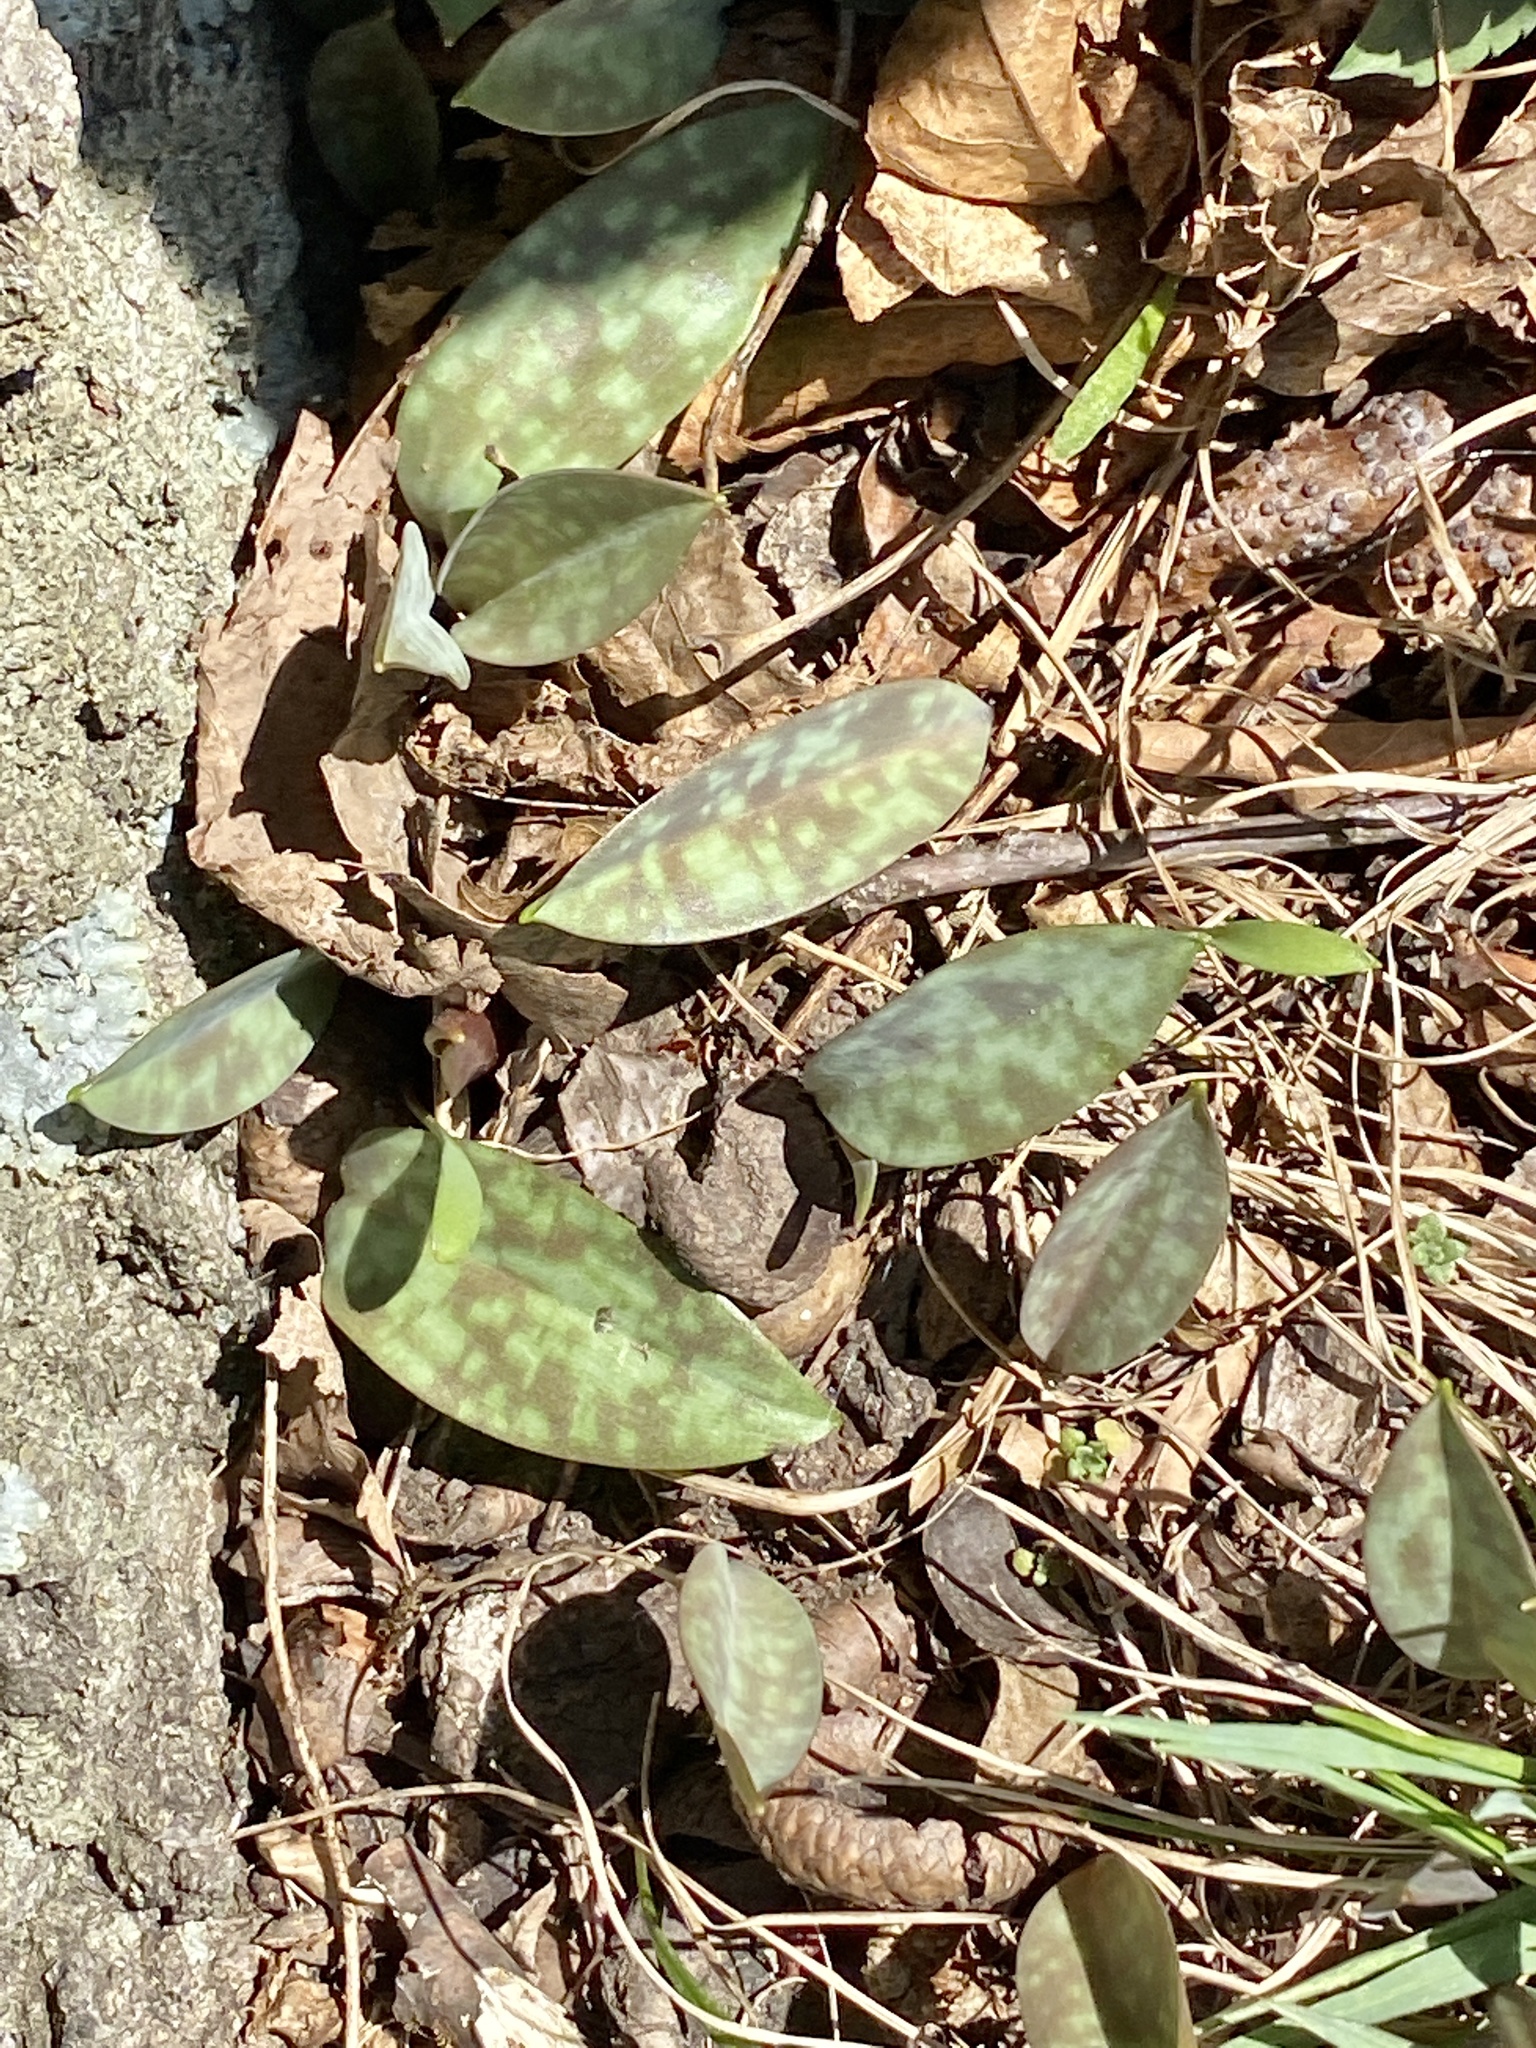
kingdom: Plantae
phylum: Tracheophyta
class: Liliopsida
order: Liliales
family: Liliaceae
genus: Erythronium
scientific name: Erythronium americanum
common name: Yellow adder's-tongue
